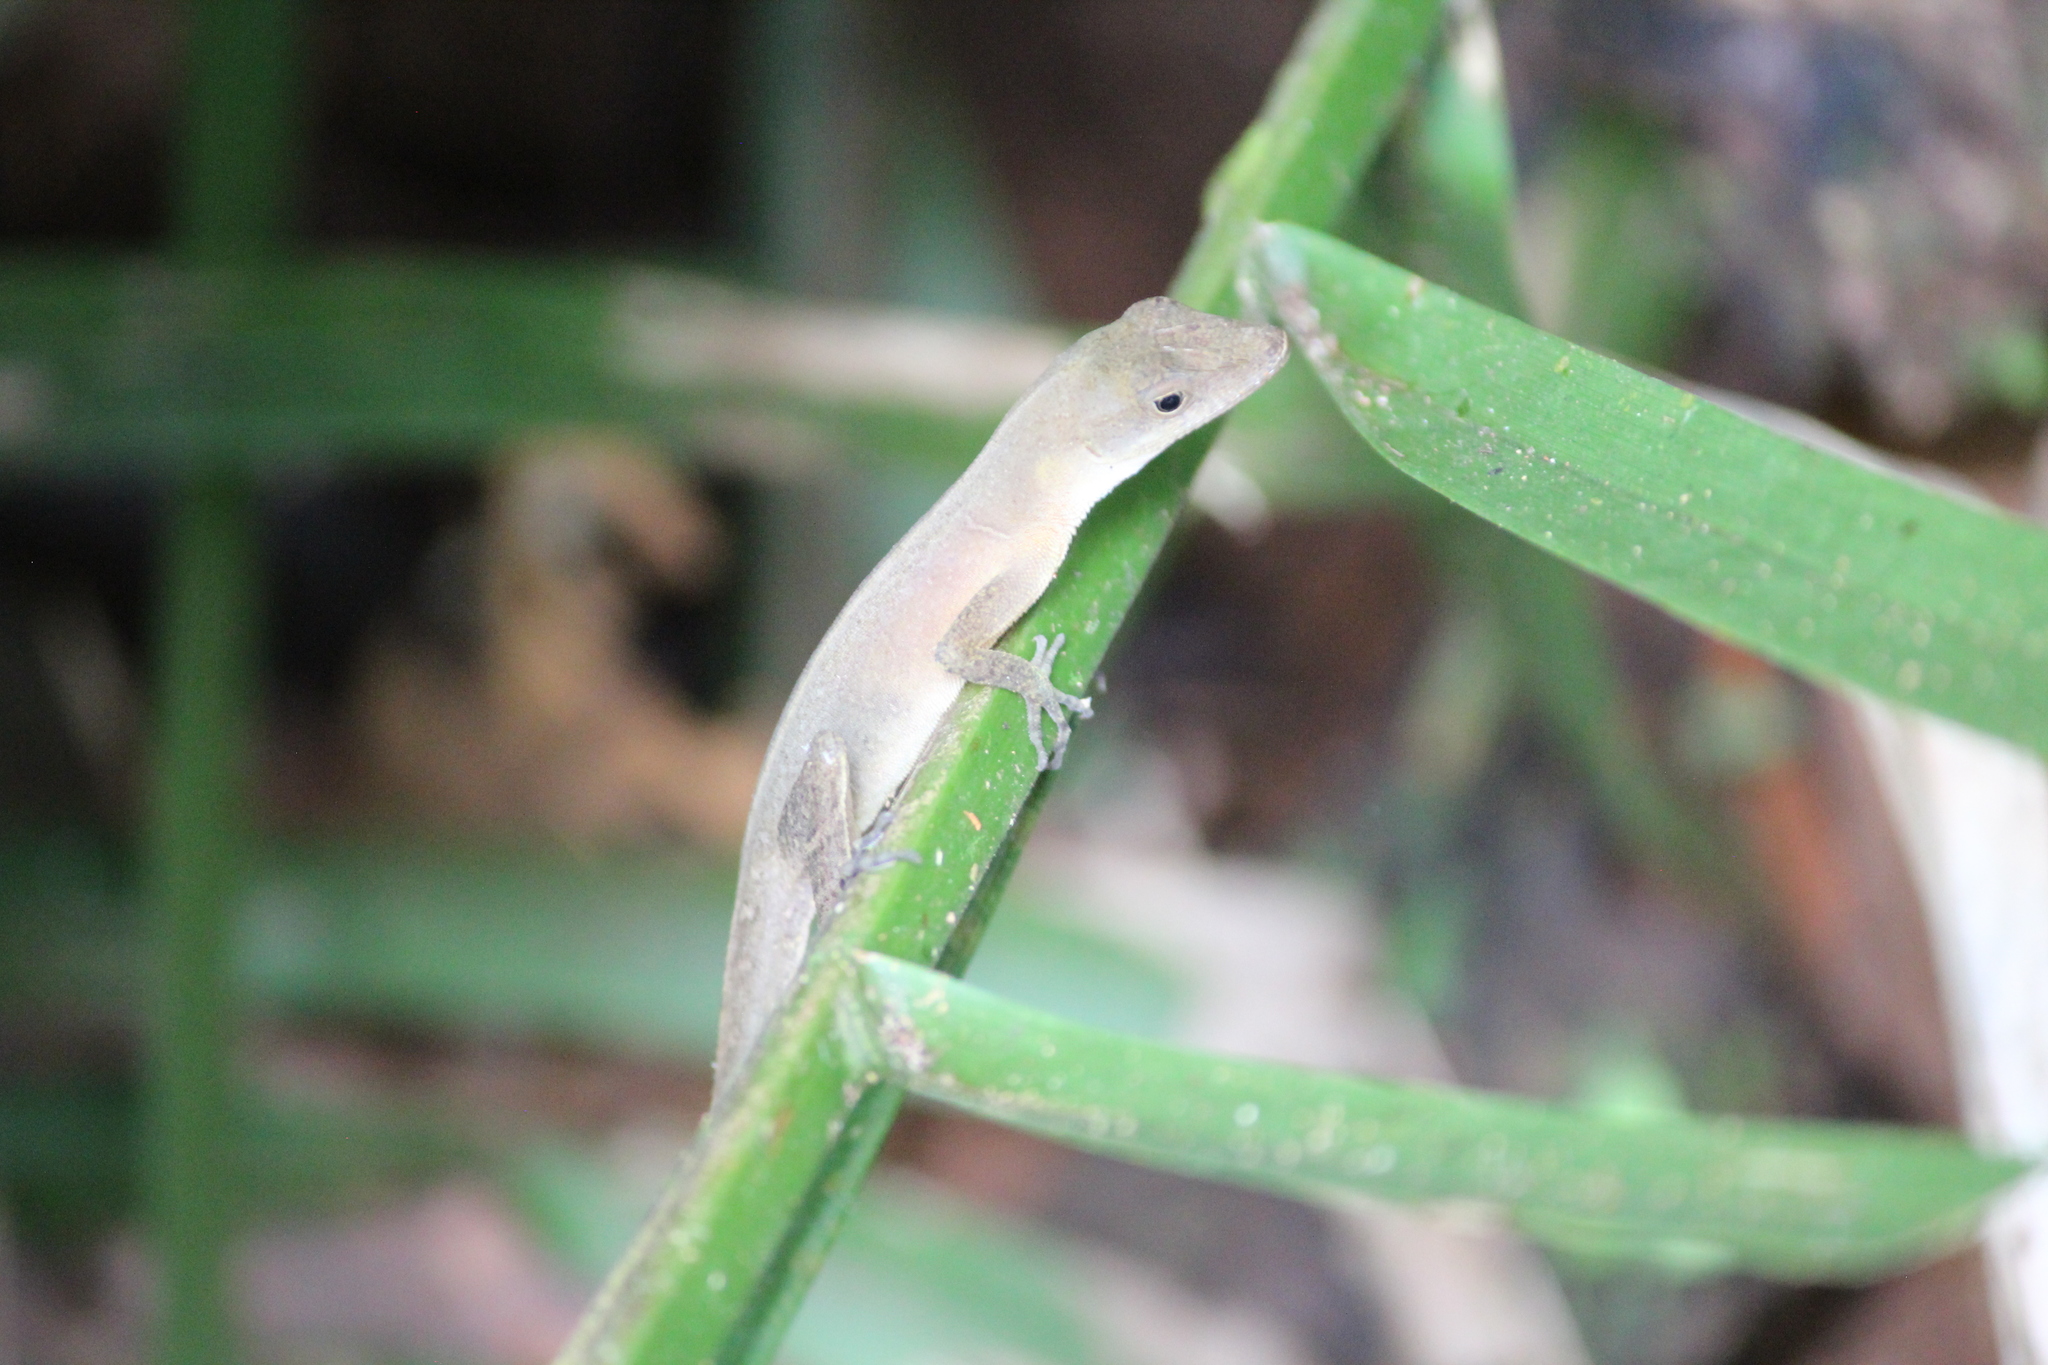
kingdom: Animalia
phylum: Chordata
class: Squamata
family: Dactyloidae
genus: Anolis
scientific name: Anolis cupreus
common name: Copper anole
